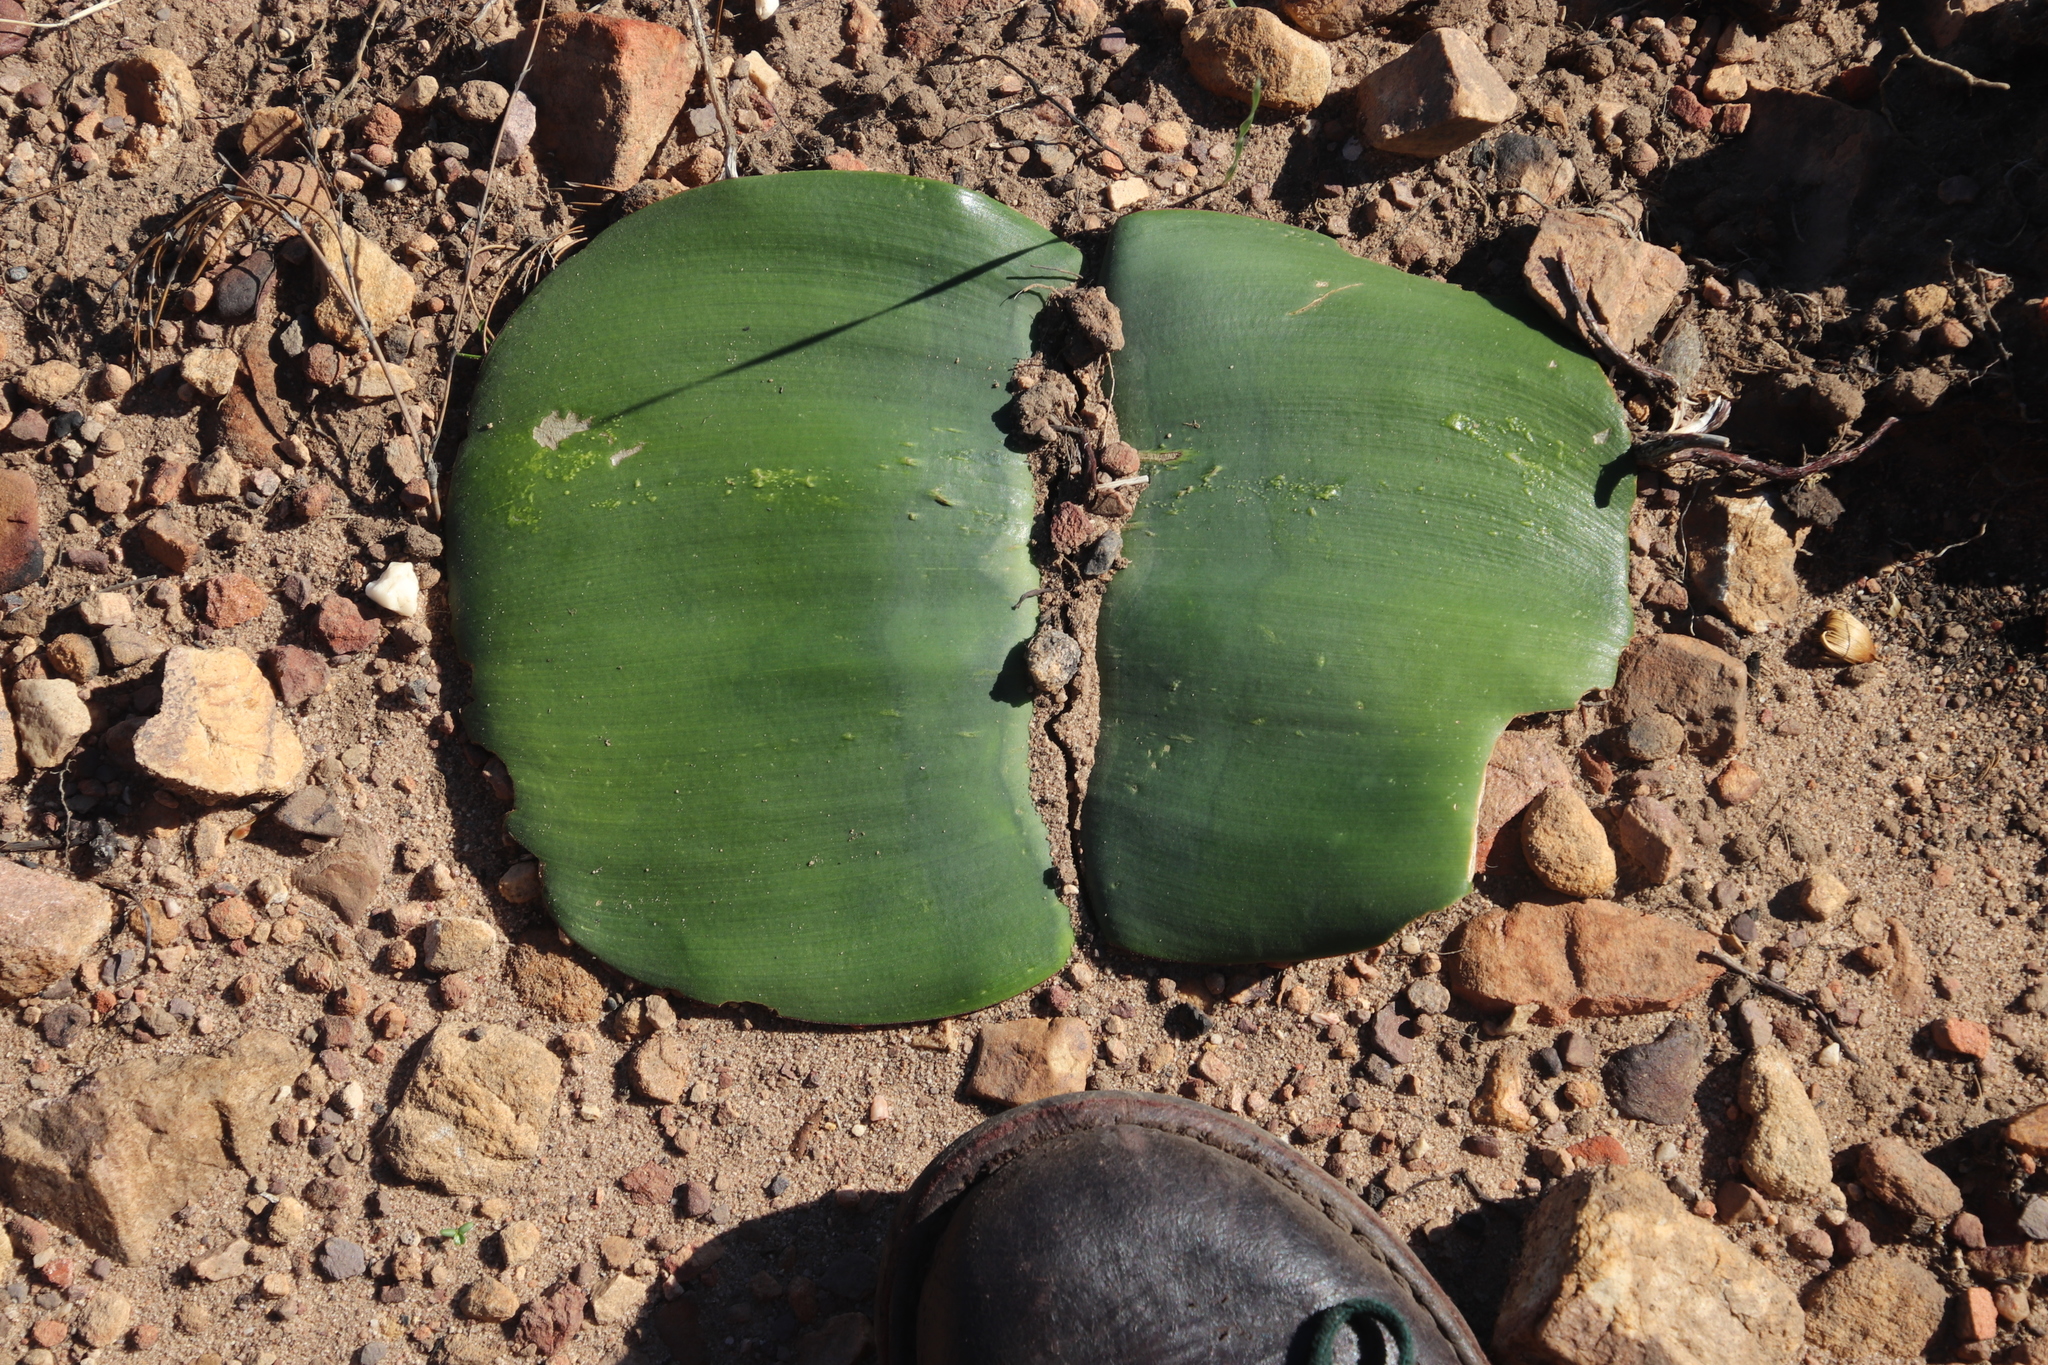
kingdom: Plantae
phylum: Tracheophyta
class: Liliopsida
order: Asparagales
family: Amaryllidaceae
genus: Haemanthus
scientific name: Haemanthus sanguineus
